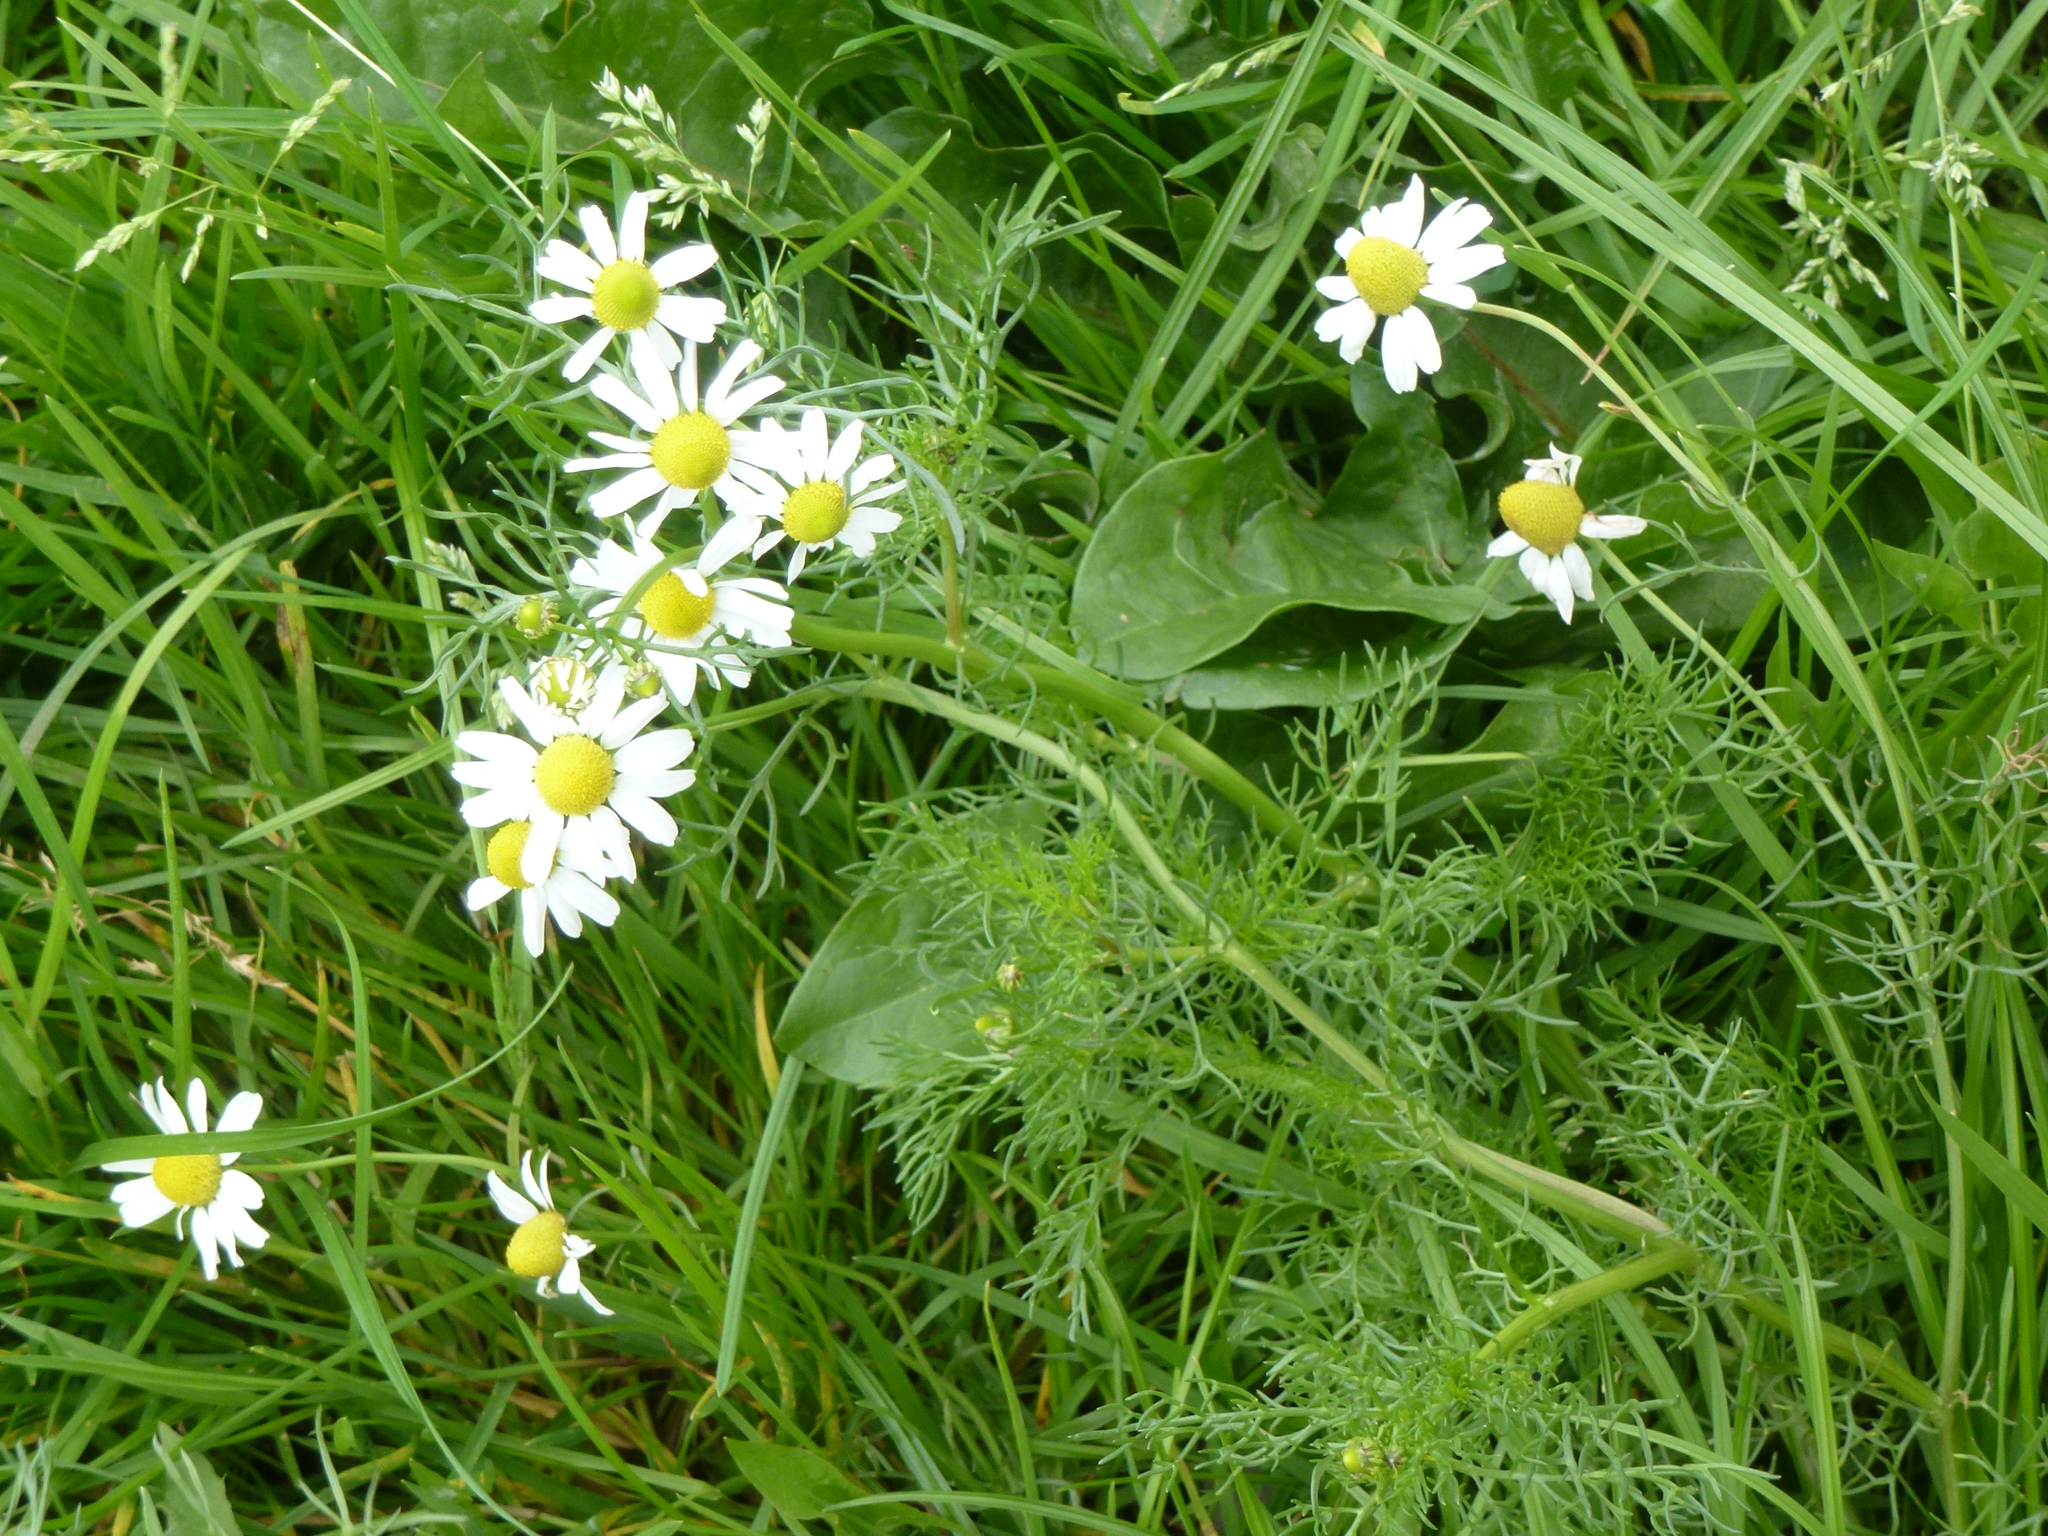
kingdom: Plantae
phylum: Tracheophyta
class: Magnoliopsida
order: Asterales
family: Asteraceae
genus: Tripleurospermum
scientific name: Tripleurospermum inodorum
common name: Scentless mayweed
